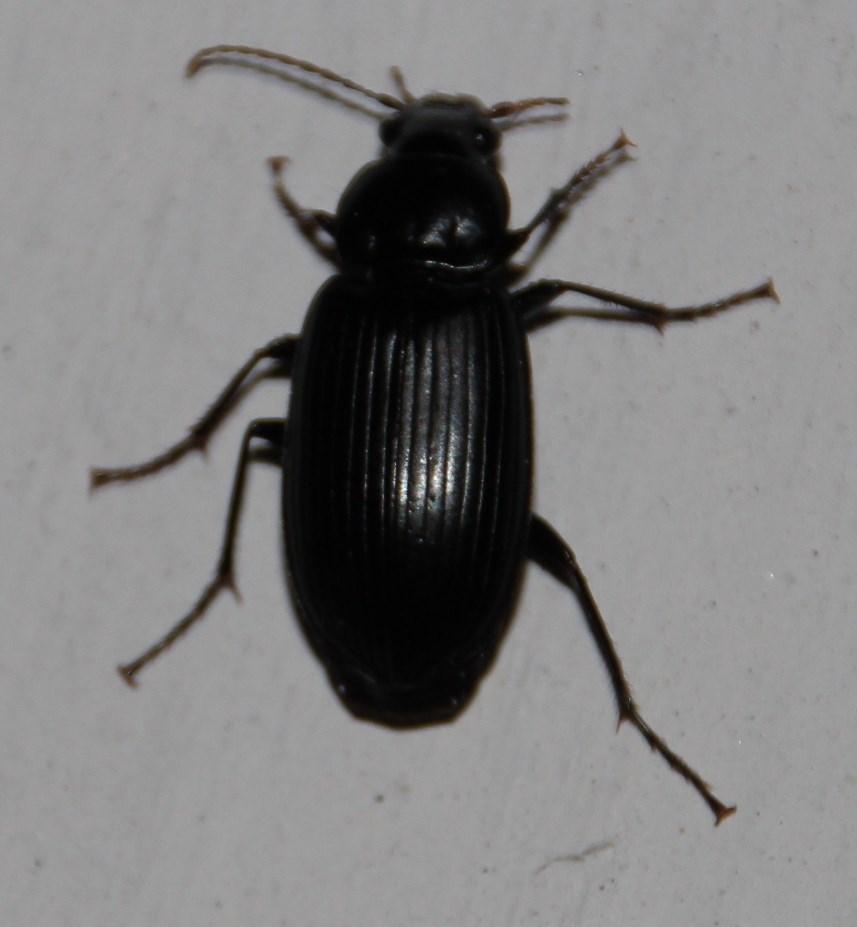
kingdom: Animalia
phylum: Arthropoda
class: Insecta
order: Coleoptera
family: Carabidae
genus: Diplocheila
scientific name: Diplocheila capensis
